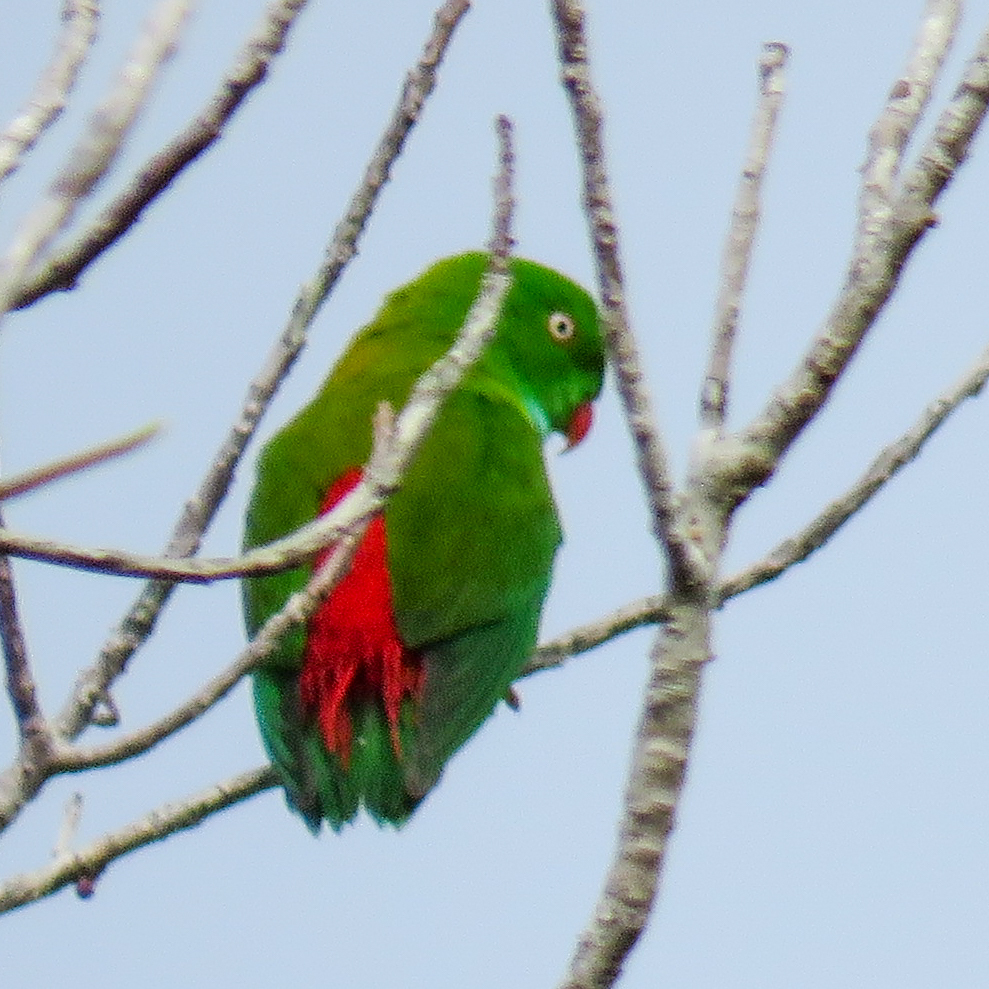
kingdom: Animalia
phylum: Chordata
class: Aves
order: Psittaciformes
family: Psittacidae
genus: Loriculus
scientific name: Loriculus vernalis
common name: Vernal hanging parrot
